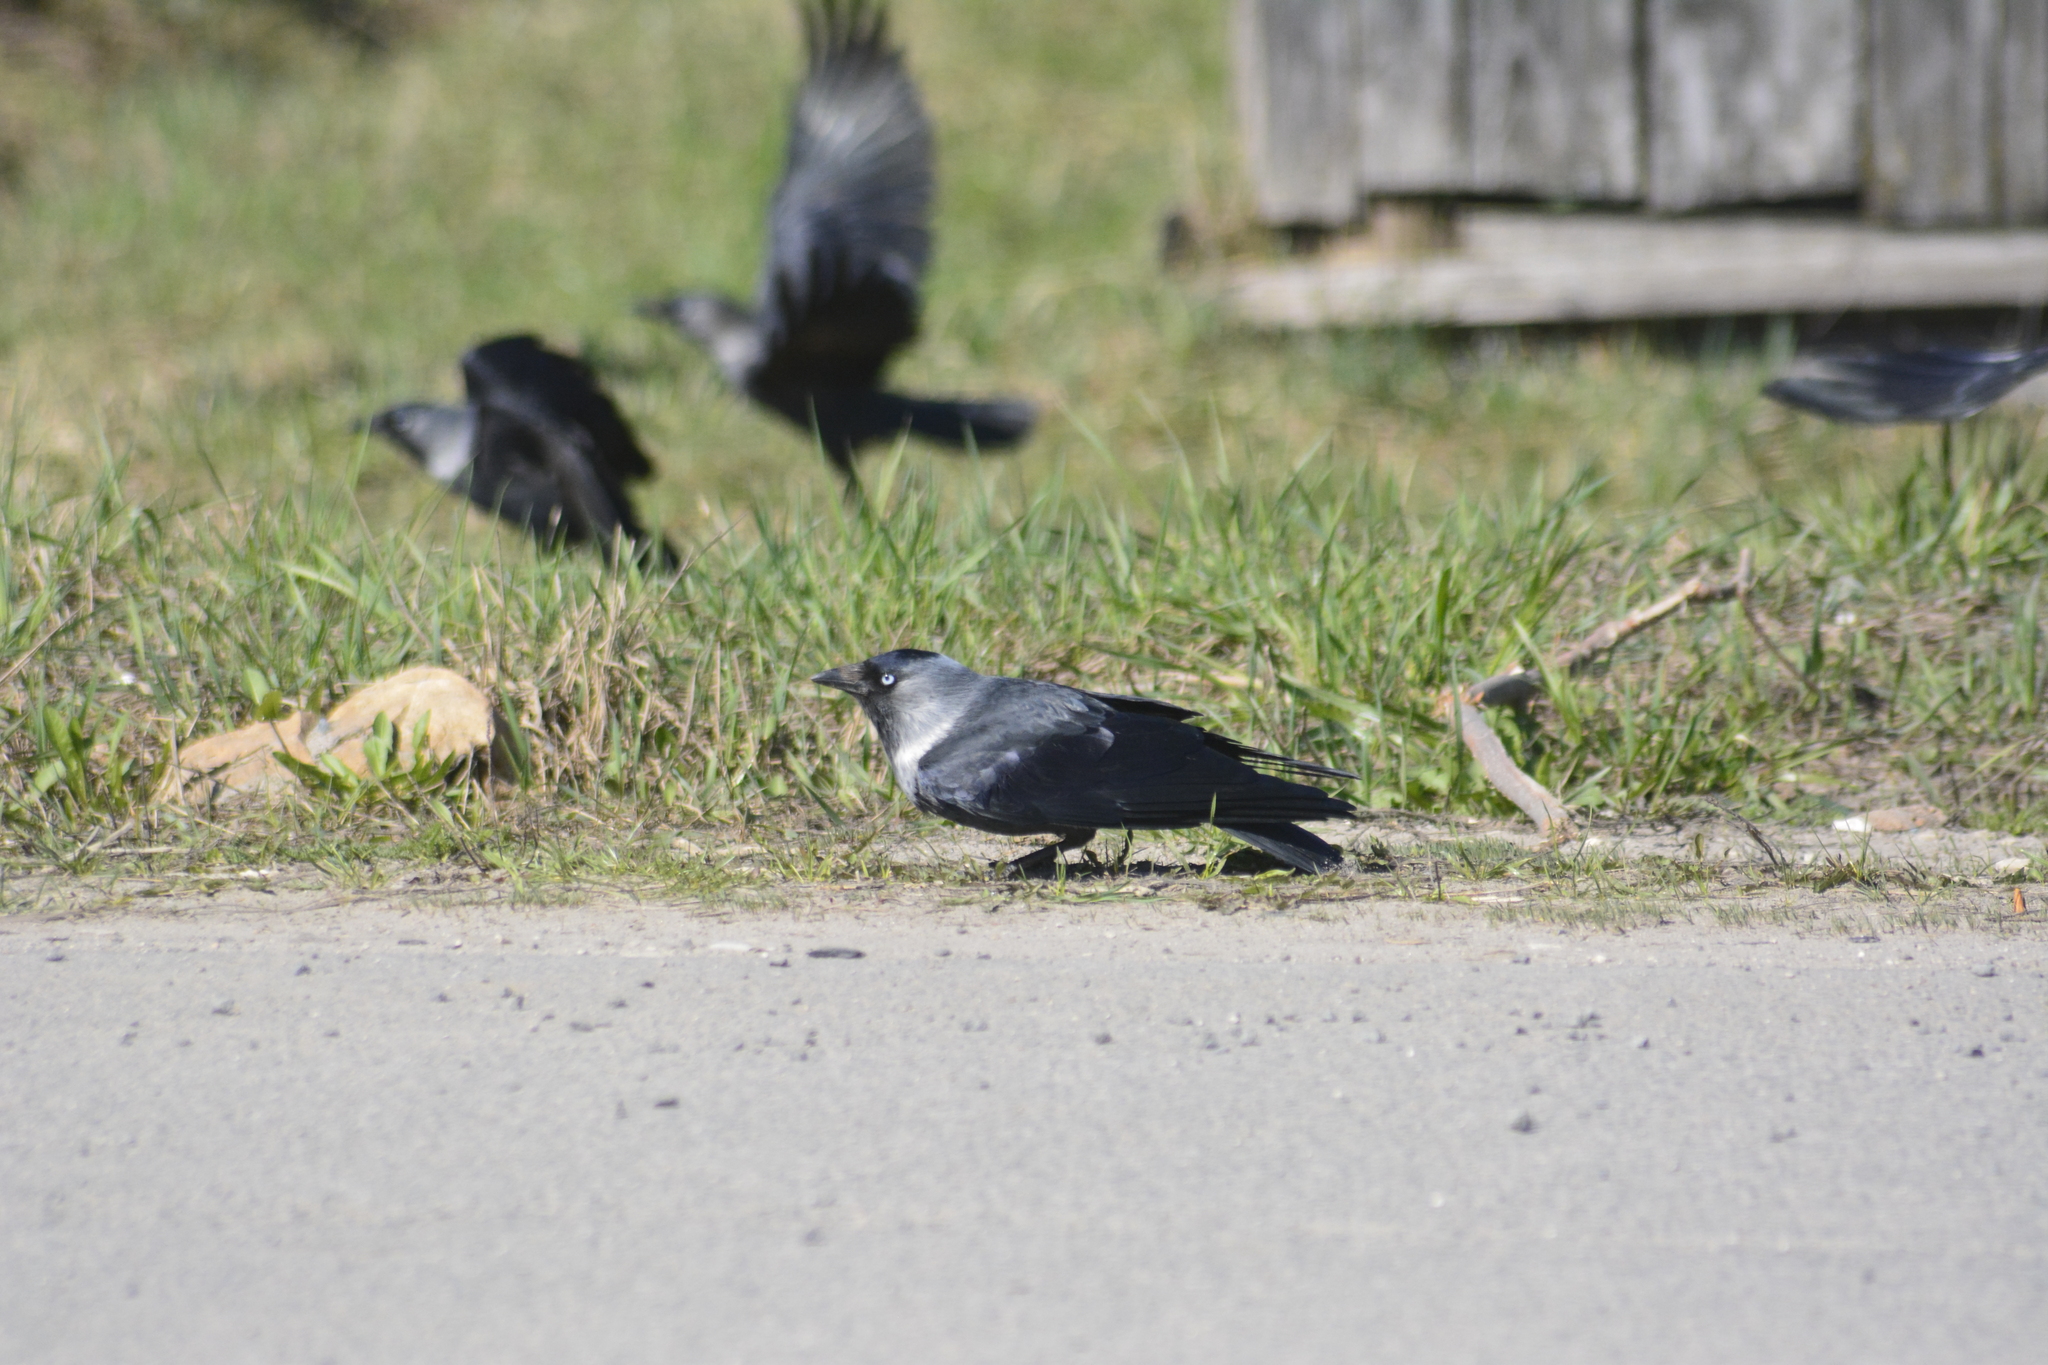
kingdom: Animalia
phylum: Chordata
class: Aves
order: Passeriformes
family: Corvidae
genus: Coloeus
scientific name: Coloeus monedula
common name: Western jackdaw
